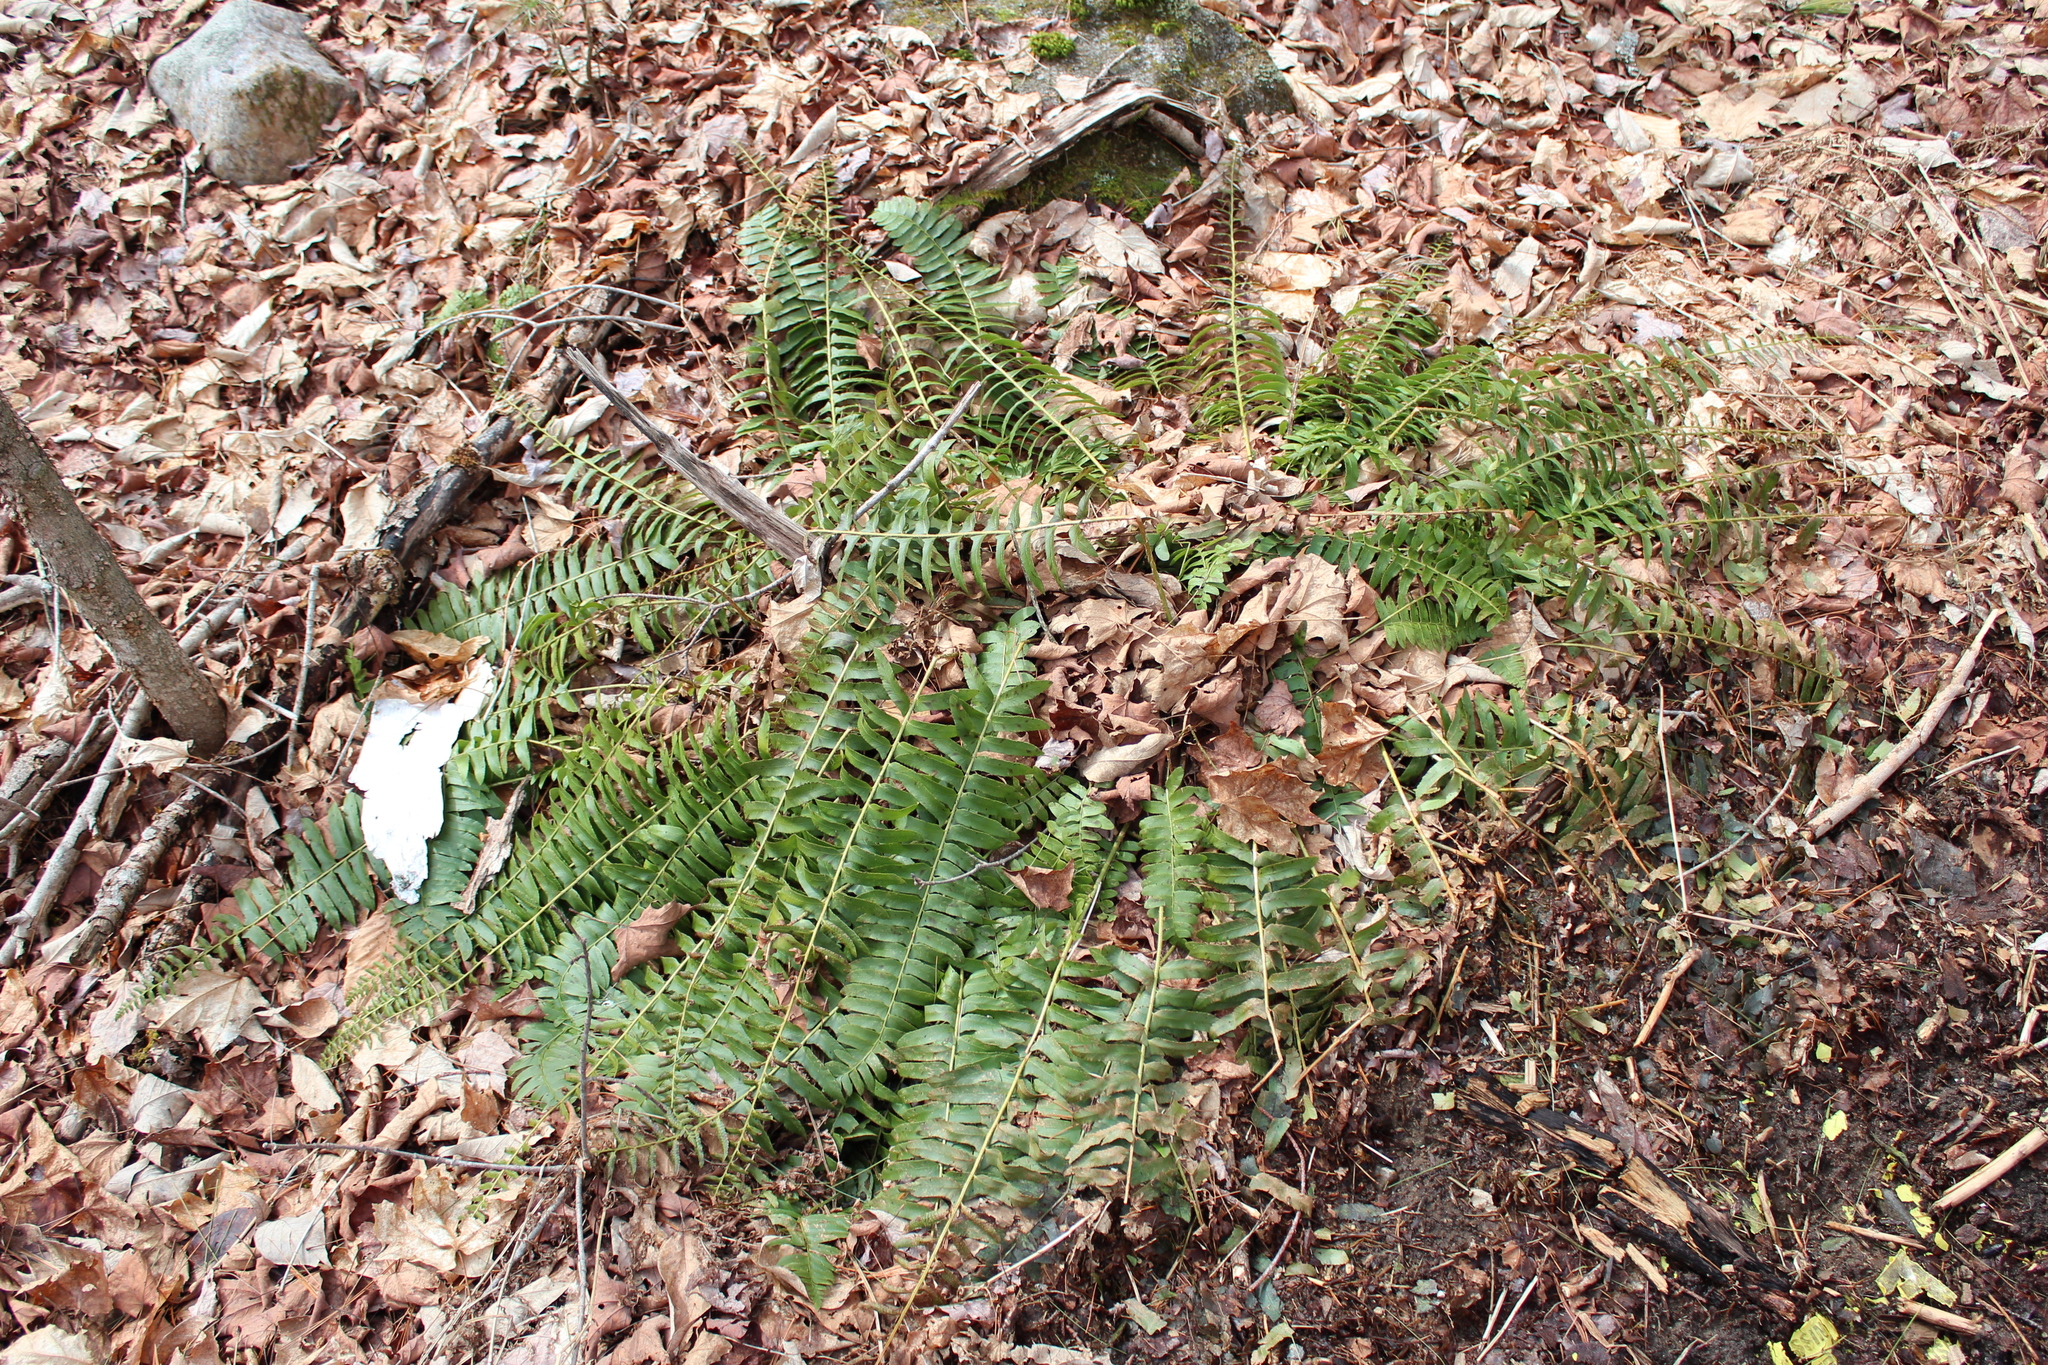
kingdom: Plantae
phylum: Tracheophyta
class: Polypodiopsida
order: Polypodiales
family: Dryopteridaceae
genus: Polystichum
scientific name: Polystichum acrostichoides
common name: Christmas fern
